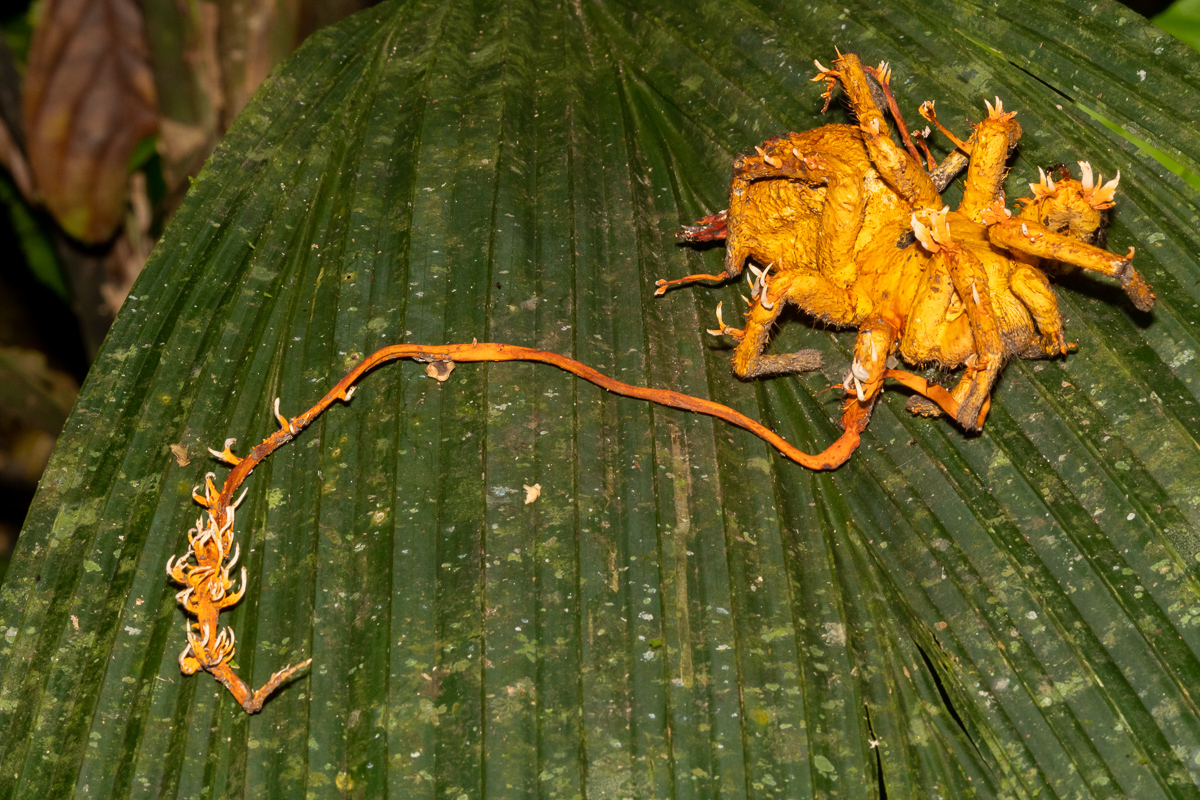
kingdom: Fungi
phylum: Ascomycota
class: Sordariomycetes
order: Hypocreales
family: Ophiocordycipitaceae
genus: Ophiocordyceps
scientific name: Ophiocordyceps caloceroides
